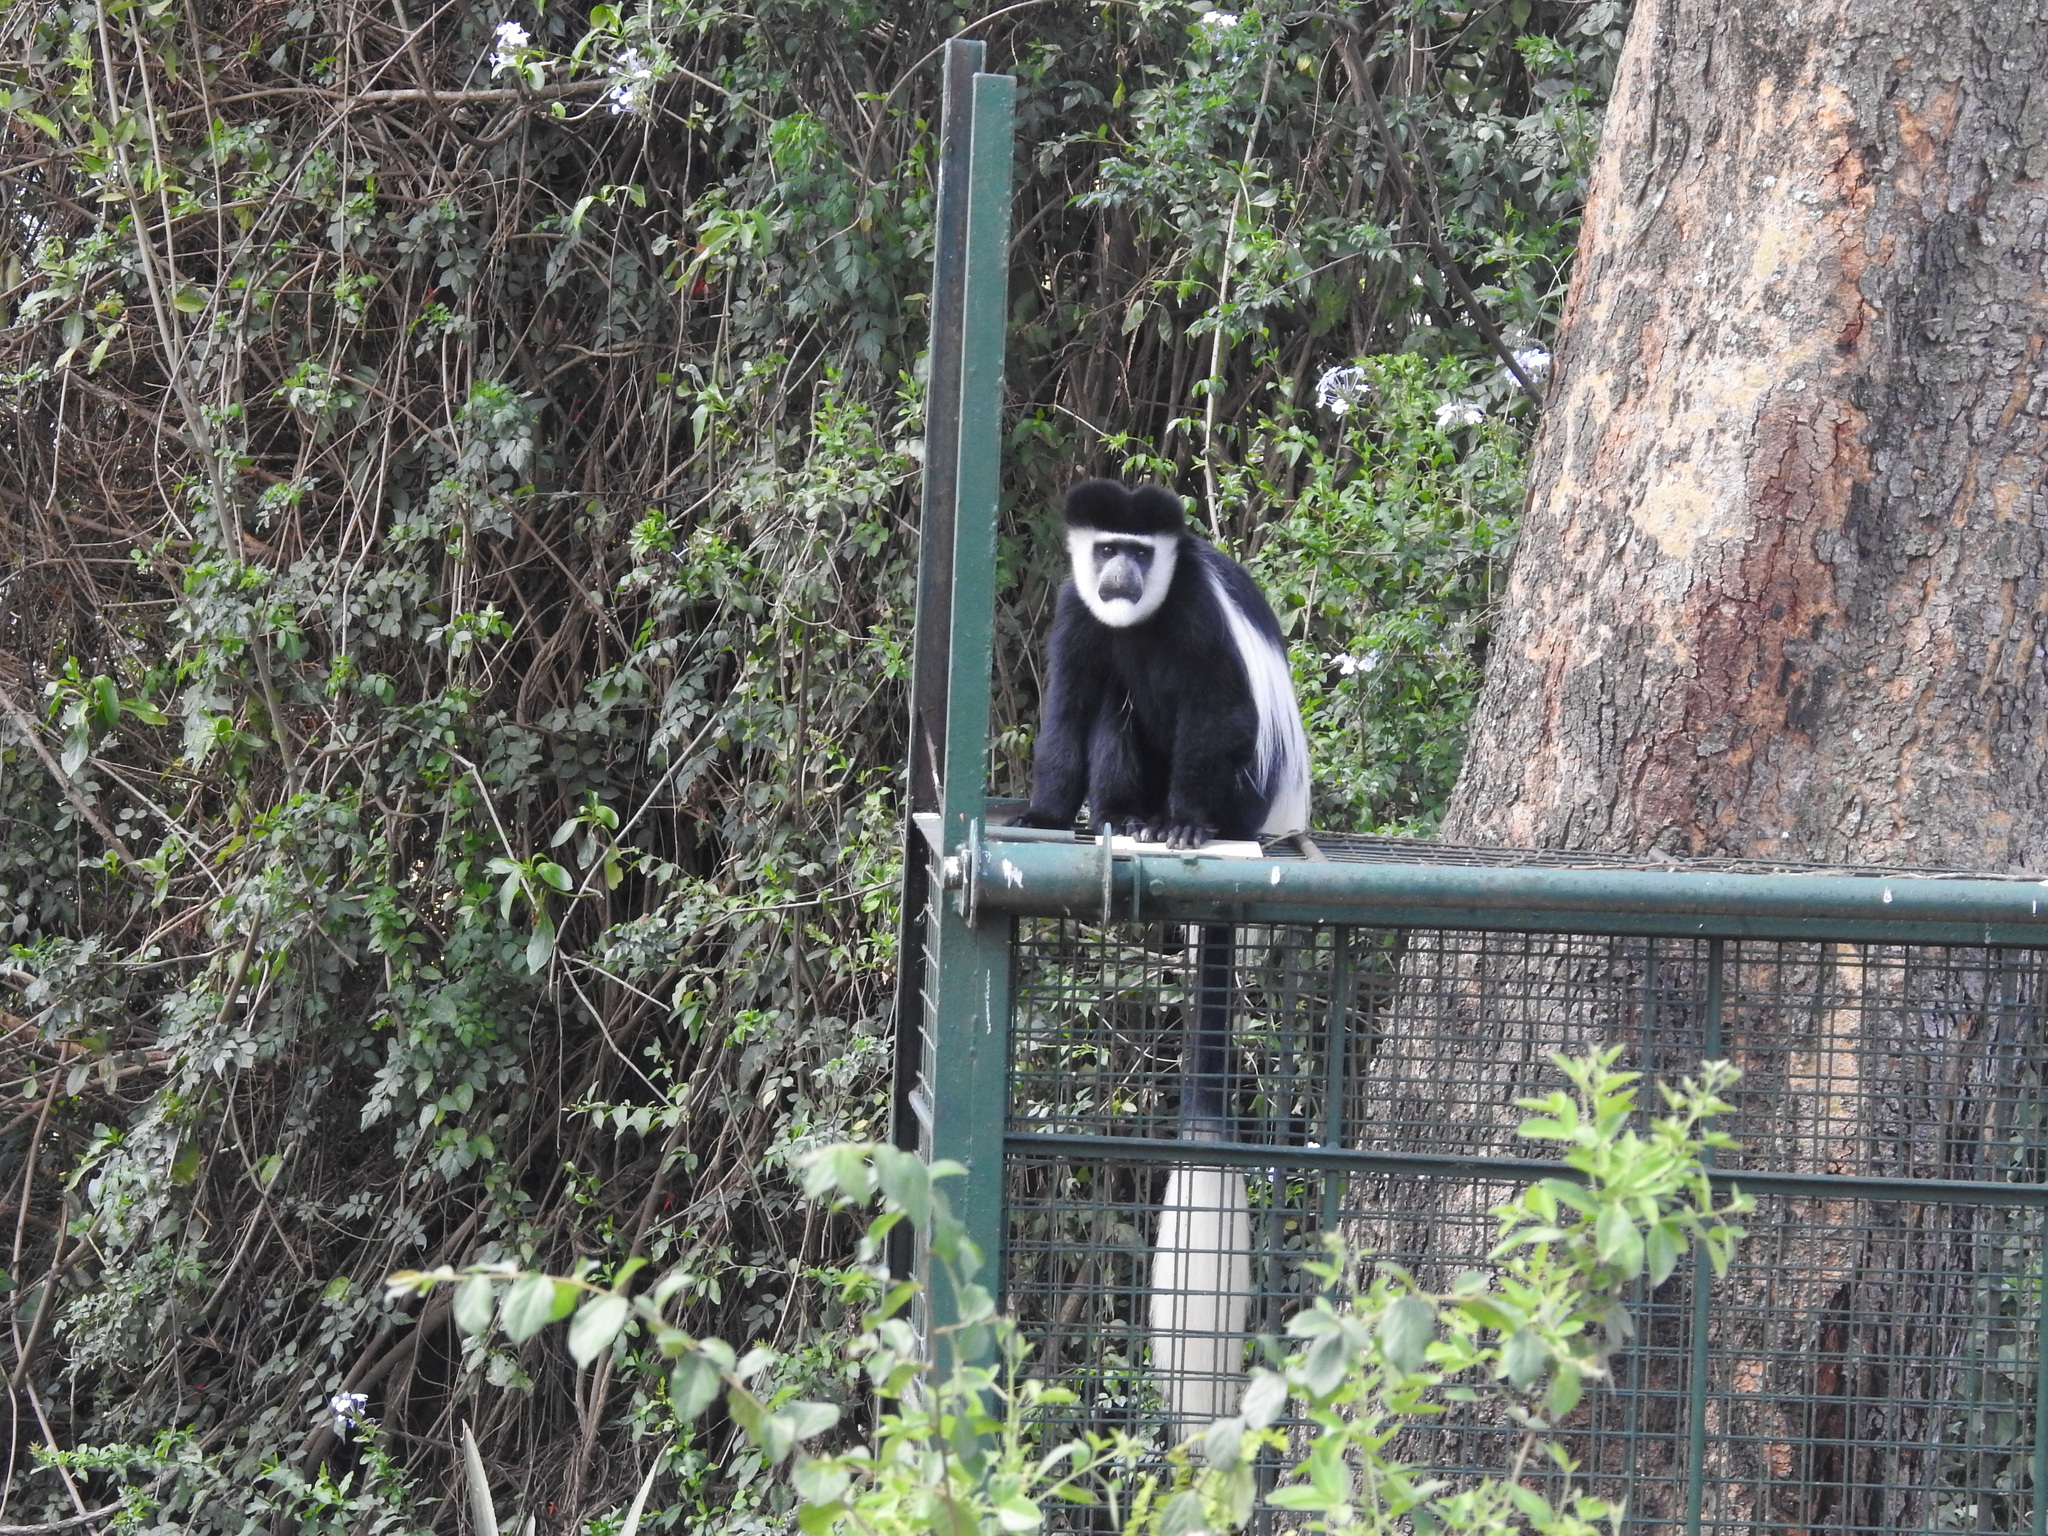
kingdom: Animalia
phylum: Chordata
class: Mammalia
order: Primates
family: Cercopithecidae
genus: Colobus
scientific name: Colobus guereza
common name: Mantled guereza
